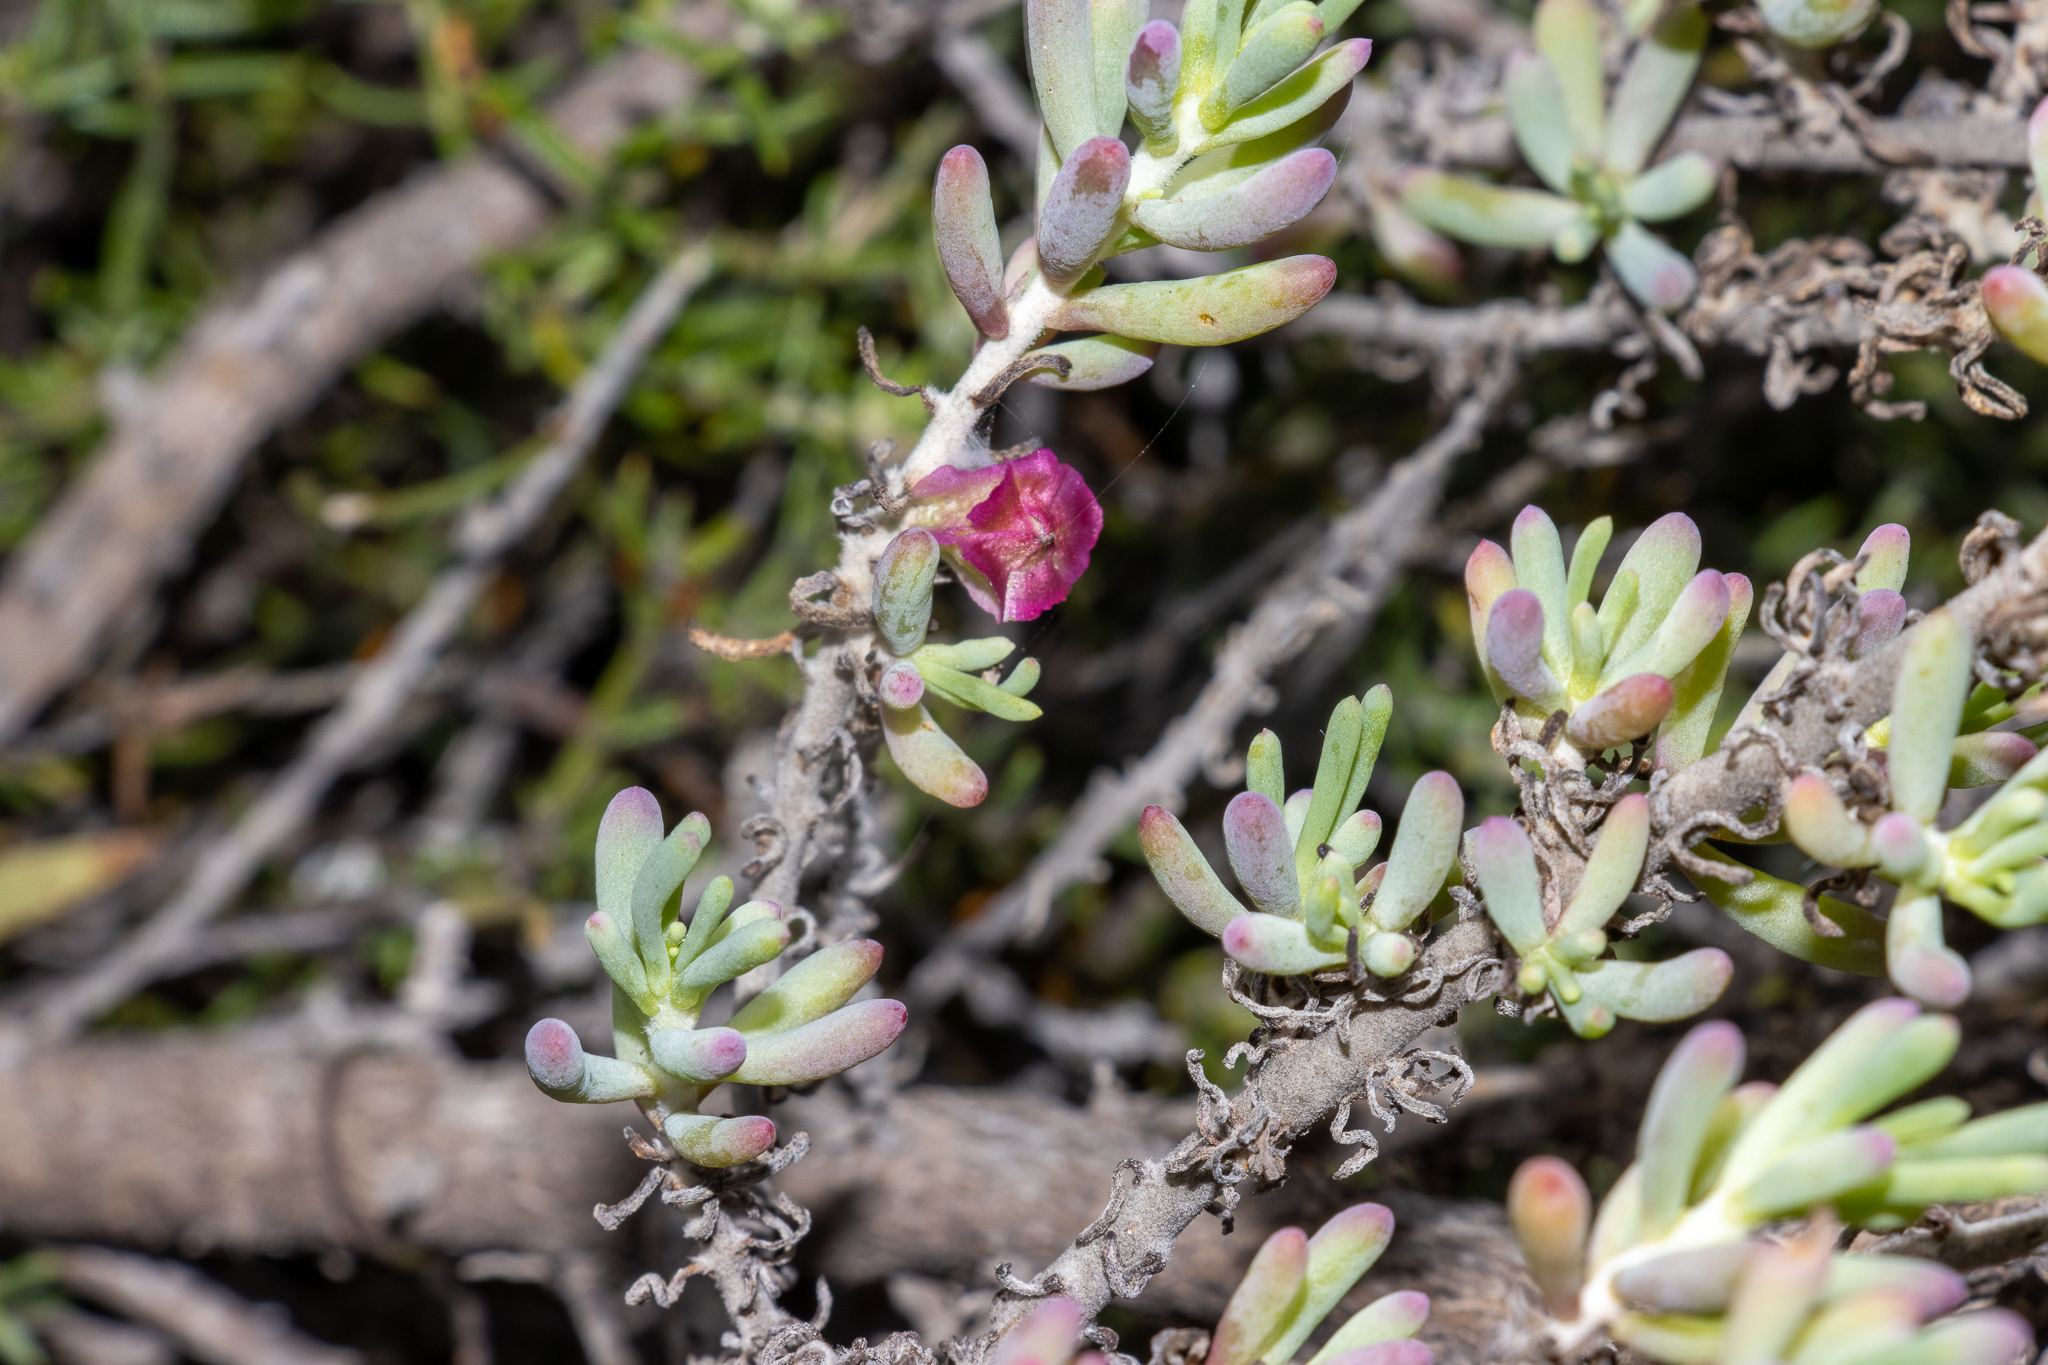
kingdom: Plantae
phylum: Tracheophyta
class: Magnoliopsida
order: Caryophyllales
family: Amaranthaceae
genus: Maireana
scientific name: Maireana erioclada
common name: Rosy bluebush
